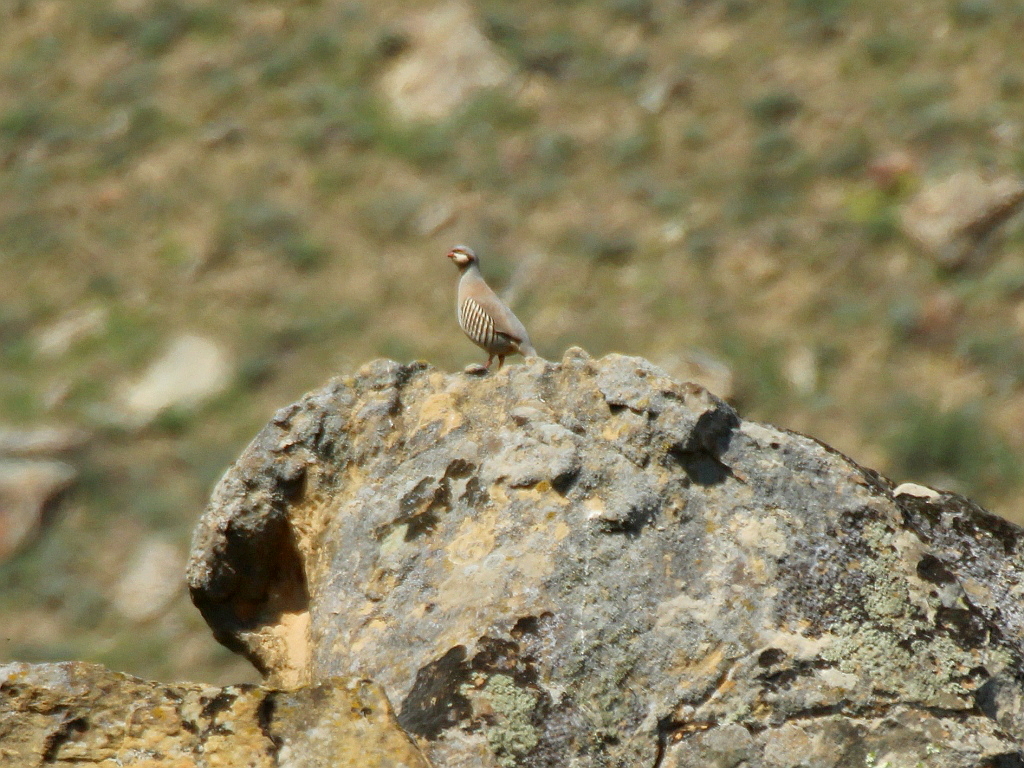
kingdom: Animalia
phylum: Chordata
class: Aves
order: Galliformes
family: Phasianidae
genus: Alectoris
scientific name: Alectoris chukar
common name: Chukar
